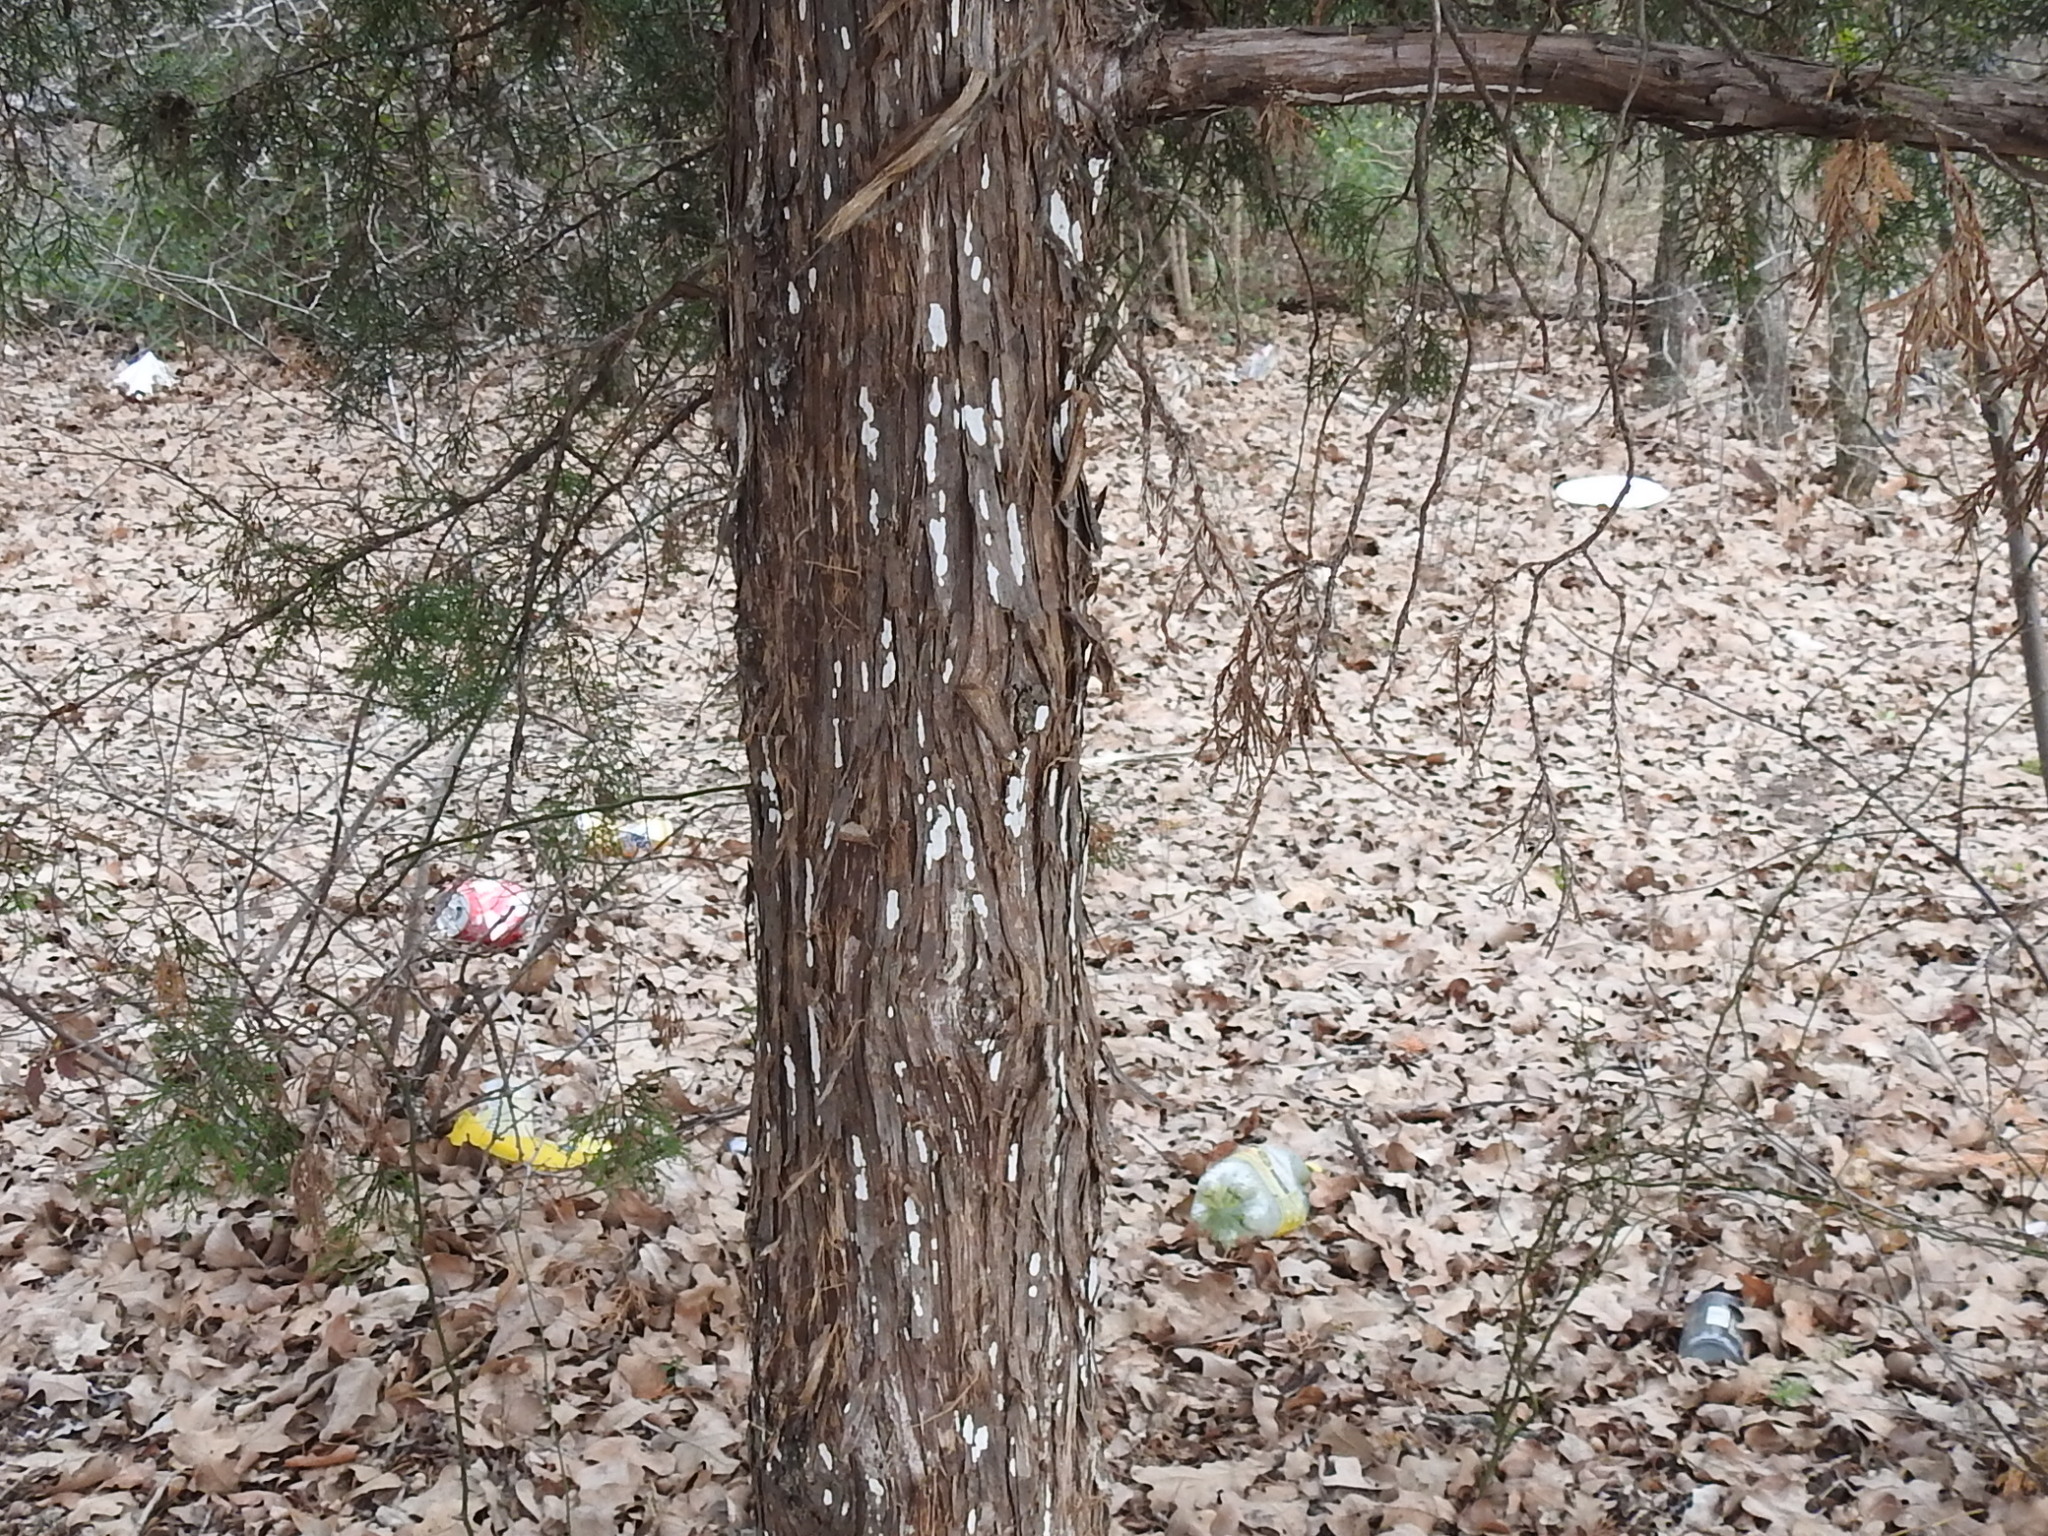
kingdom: Fungi
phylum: Basidiomycota
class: Agaricomycetes
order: Agaricales
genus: Dendrothele
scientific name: Dendrothele nivosa
